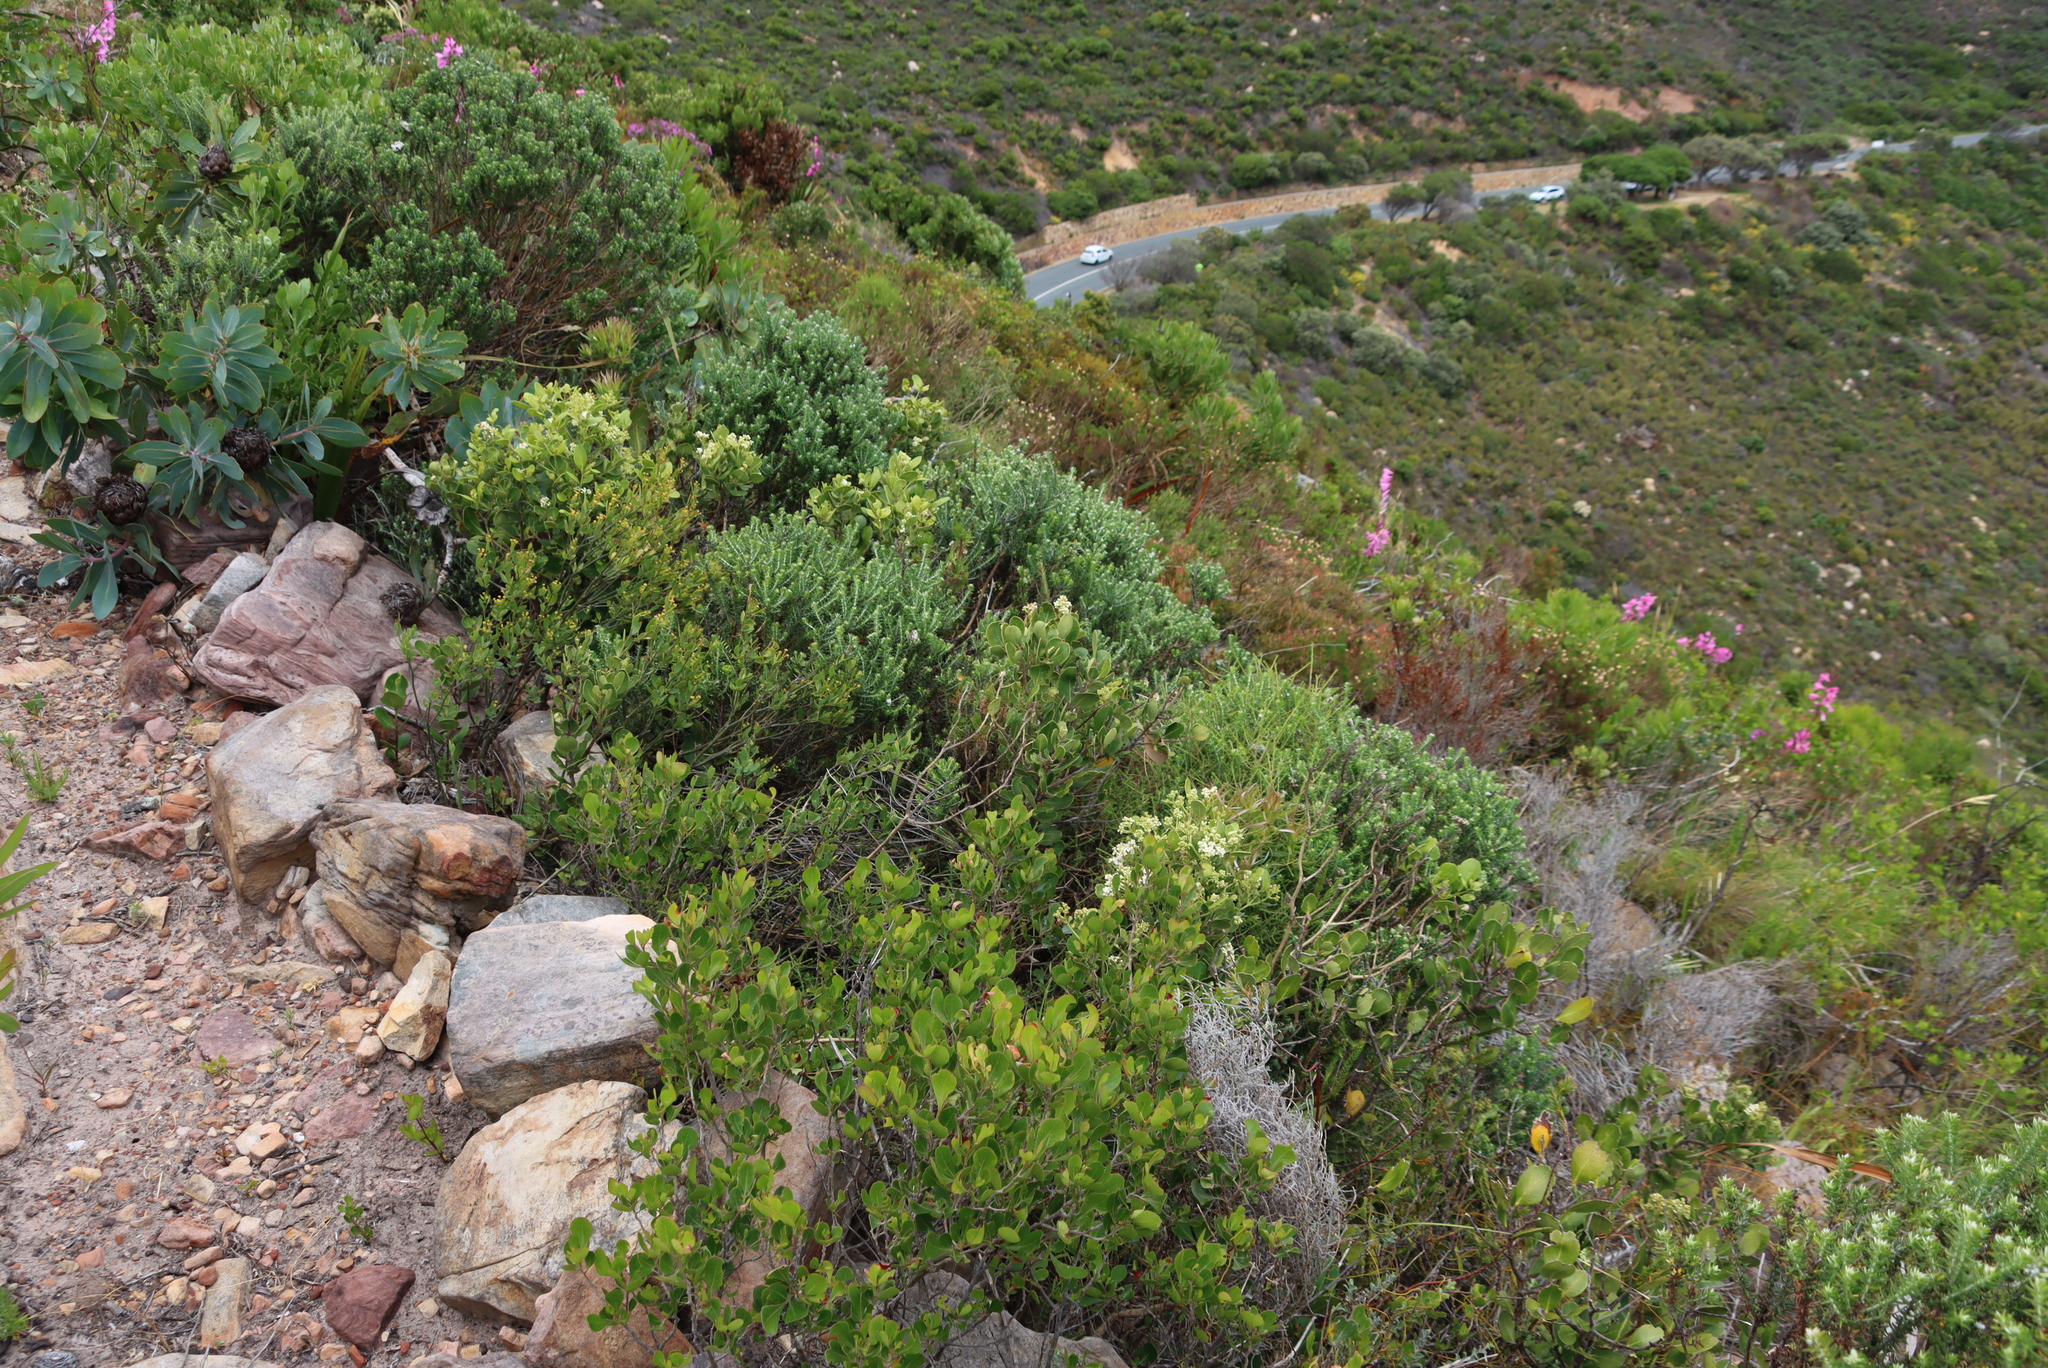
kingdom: Plantae
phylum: Tracheophyta
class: Magnoliopsida
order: Lamiales
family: Oleaceae
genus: Olea
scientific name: Olea capensis
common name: Black ironwood
